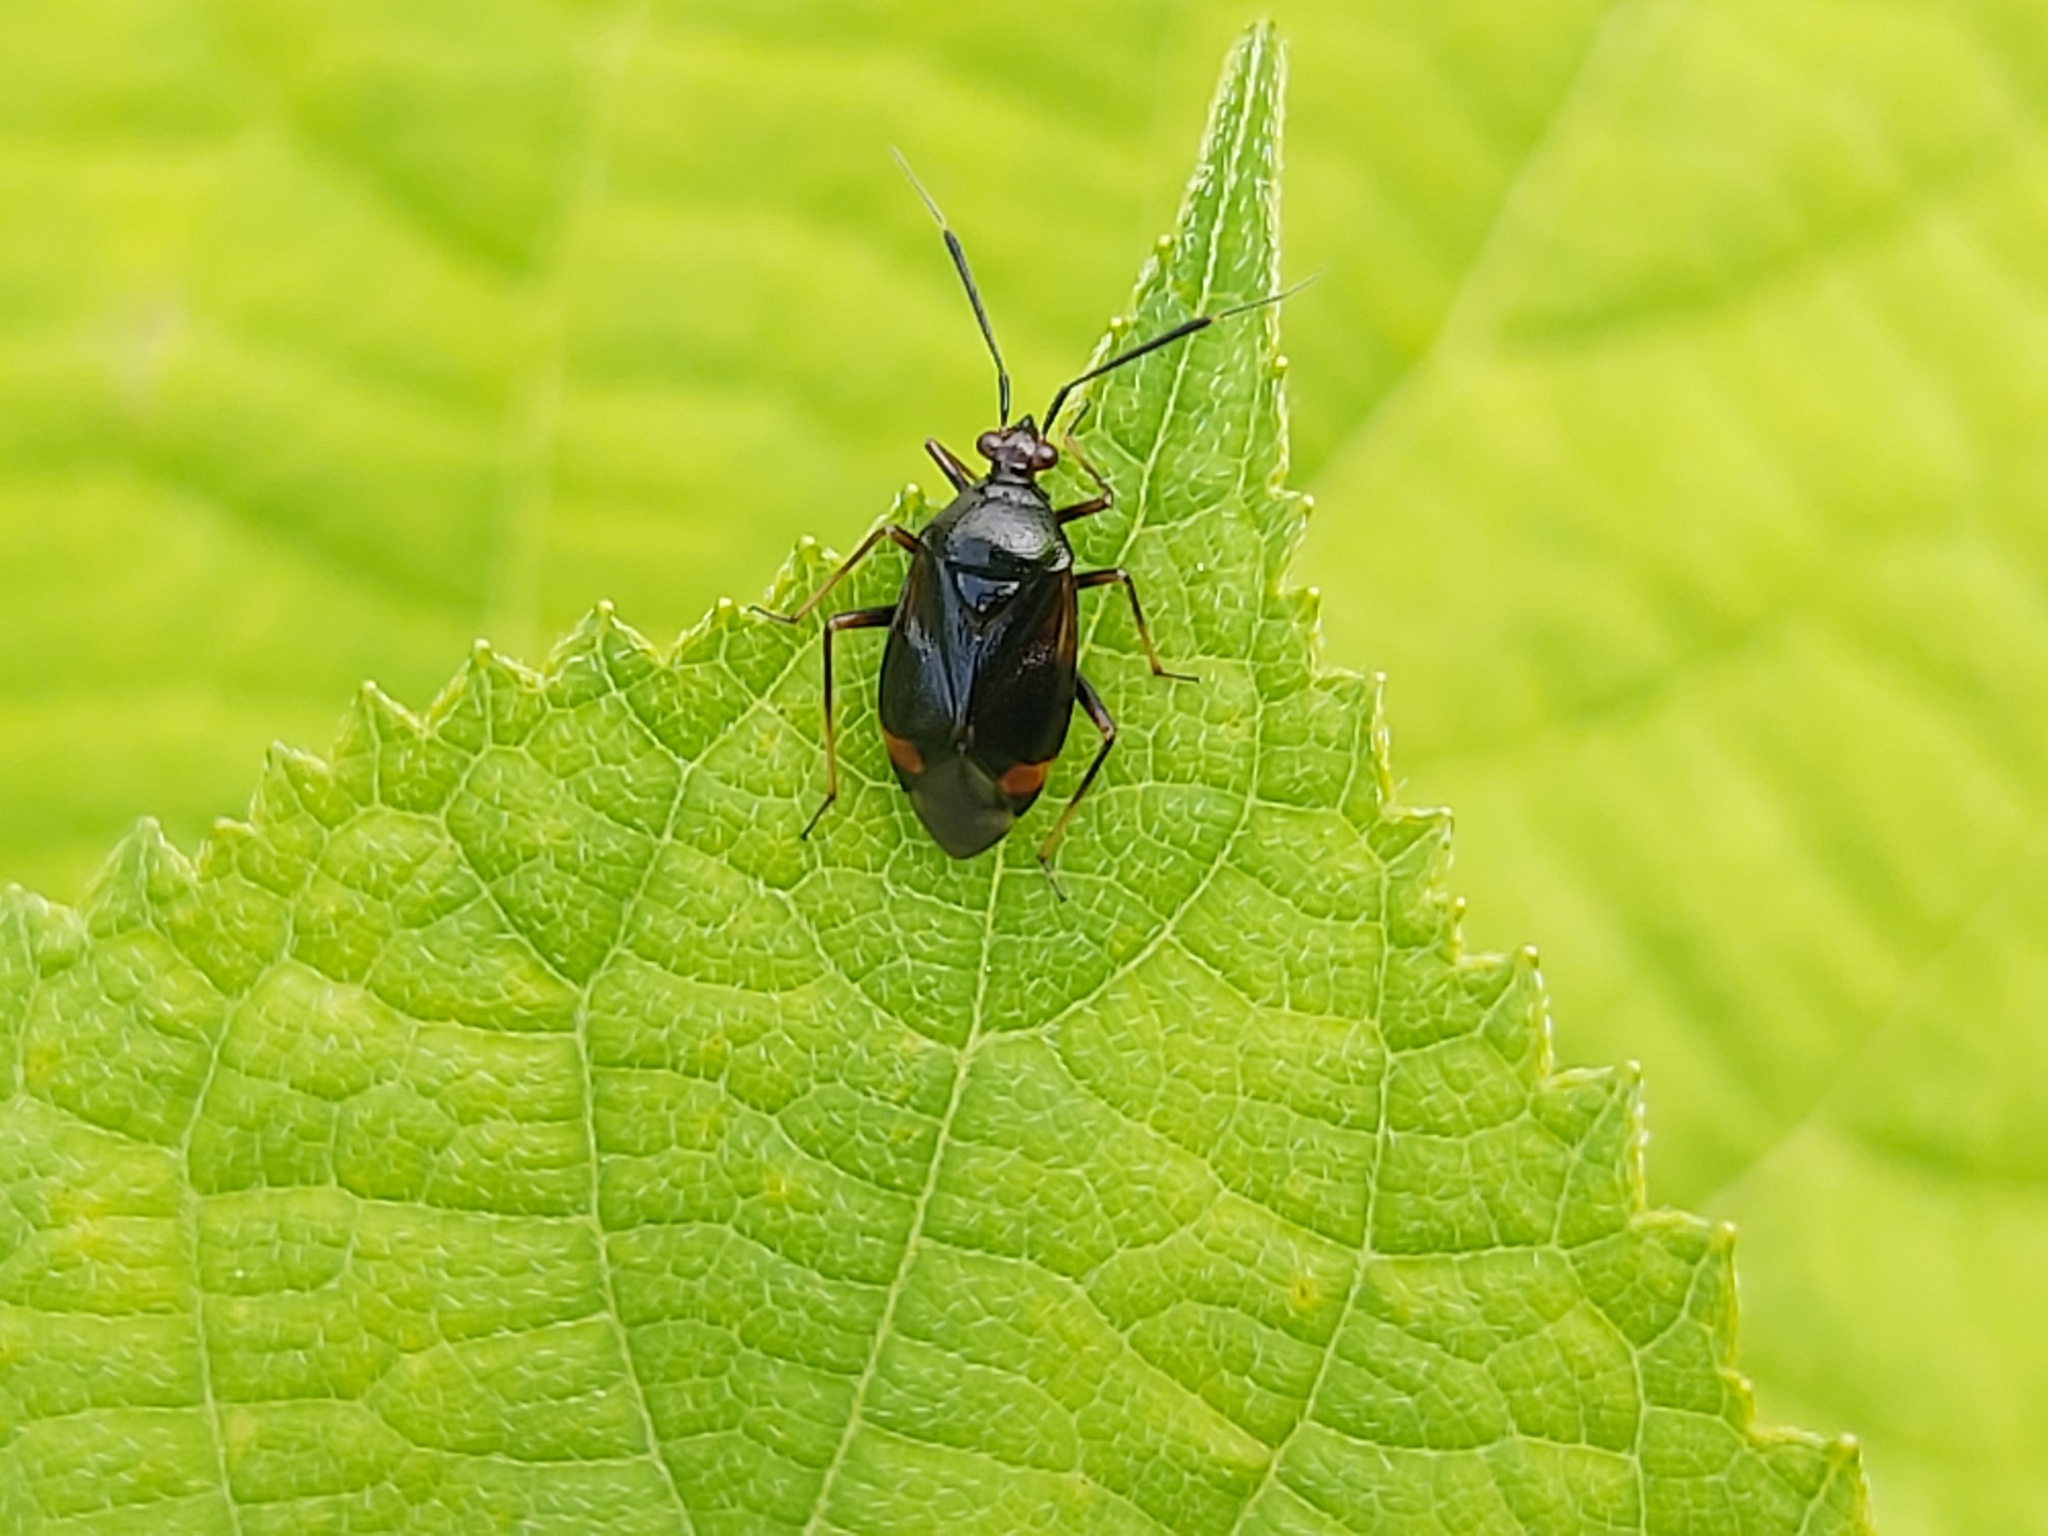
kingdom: Animalia
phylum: Arthropoda
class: Insecta
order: Hemiptera
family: Miridae
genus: Deraeocoris
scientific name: Deraeocoris ruber
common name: Plant bug
